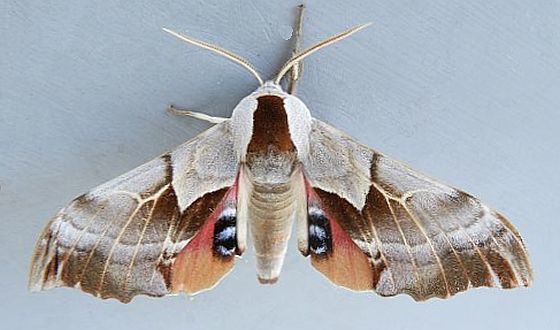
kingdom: Animalia
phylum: Arthropoda
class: Insecta
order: Lepidoptera
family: Sphingidae
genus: Smerinthus
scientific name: Smerinthus saliceti
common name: Salicet sphinx
